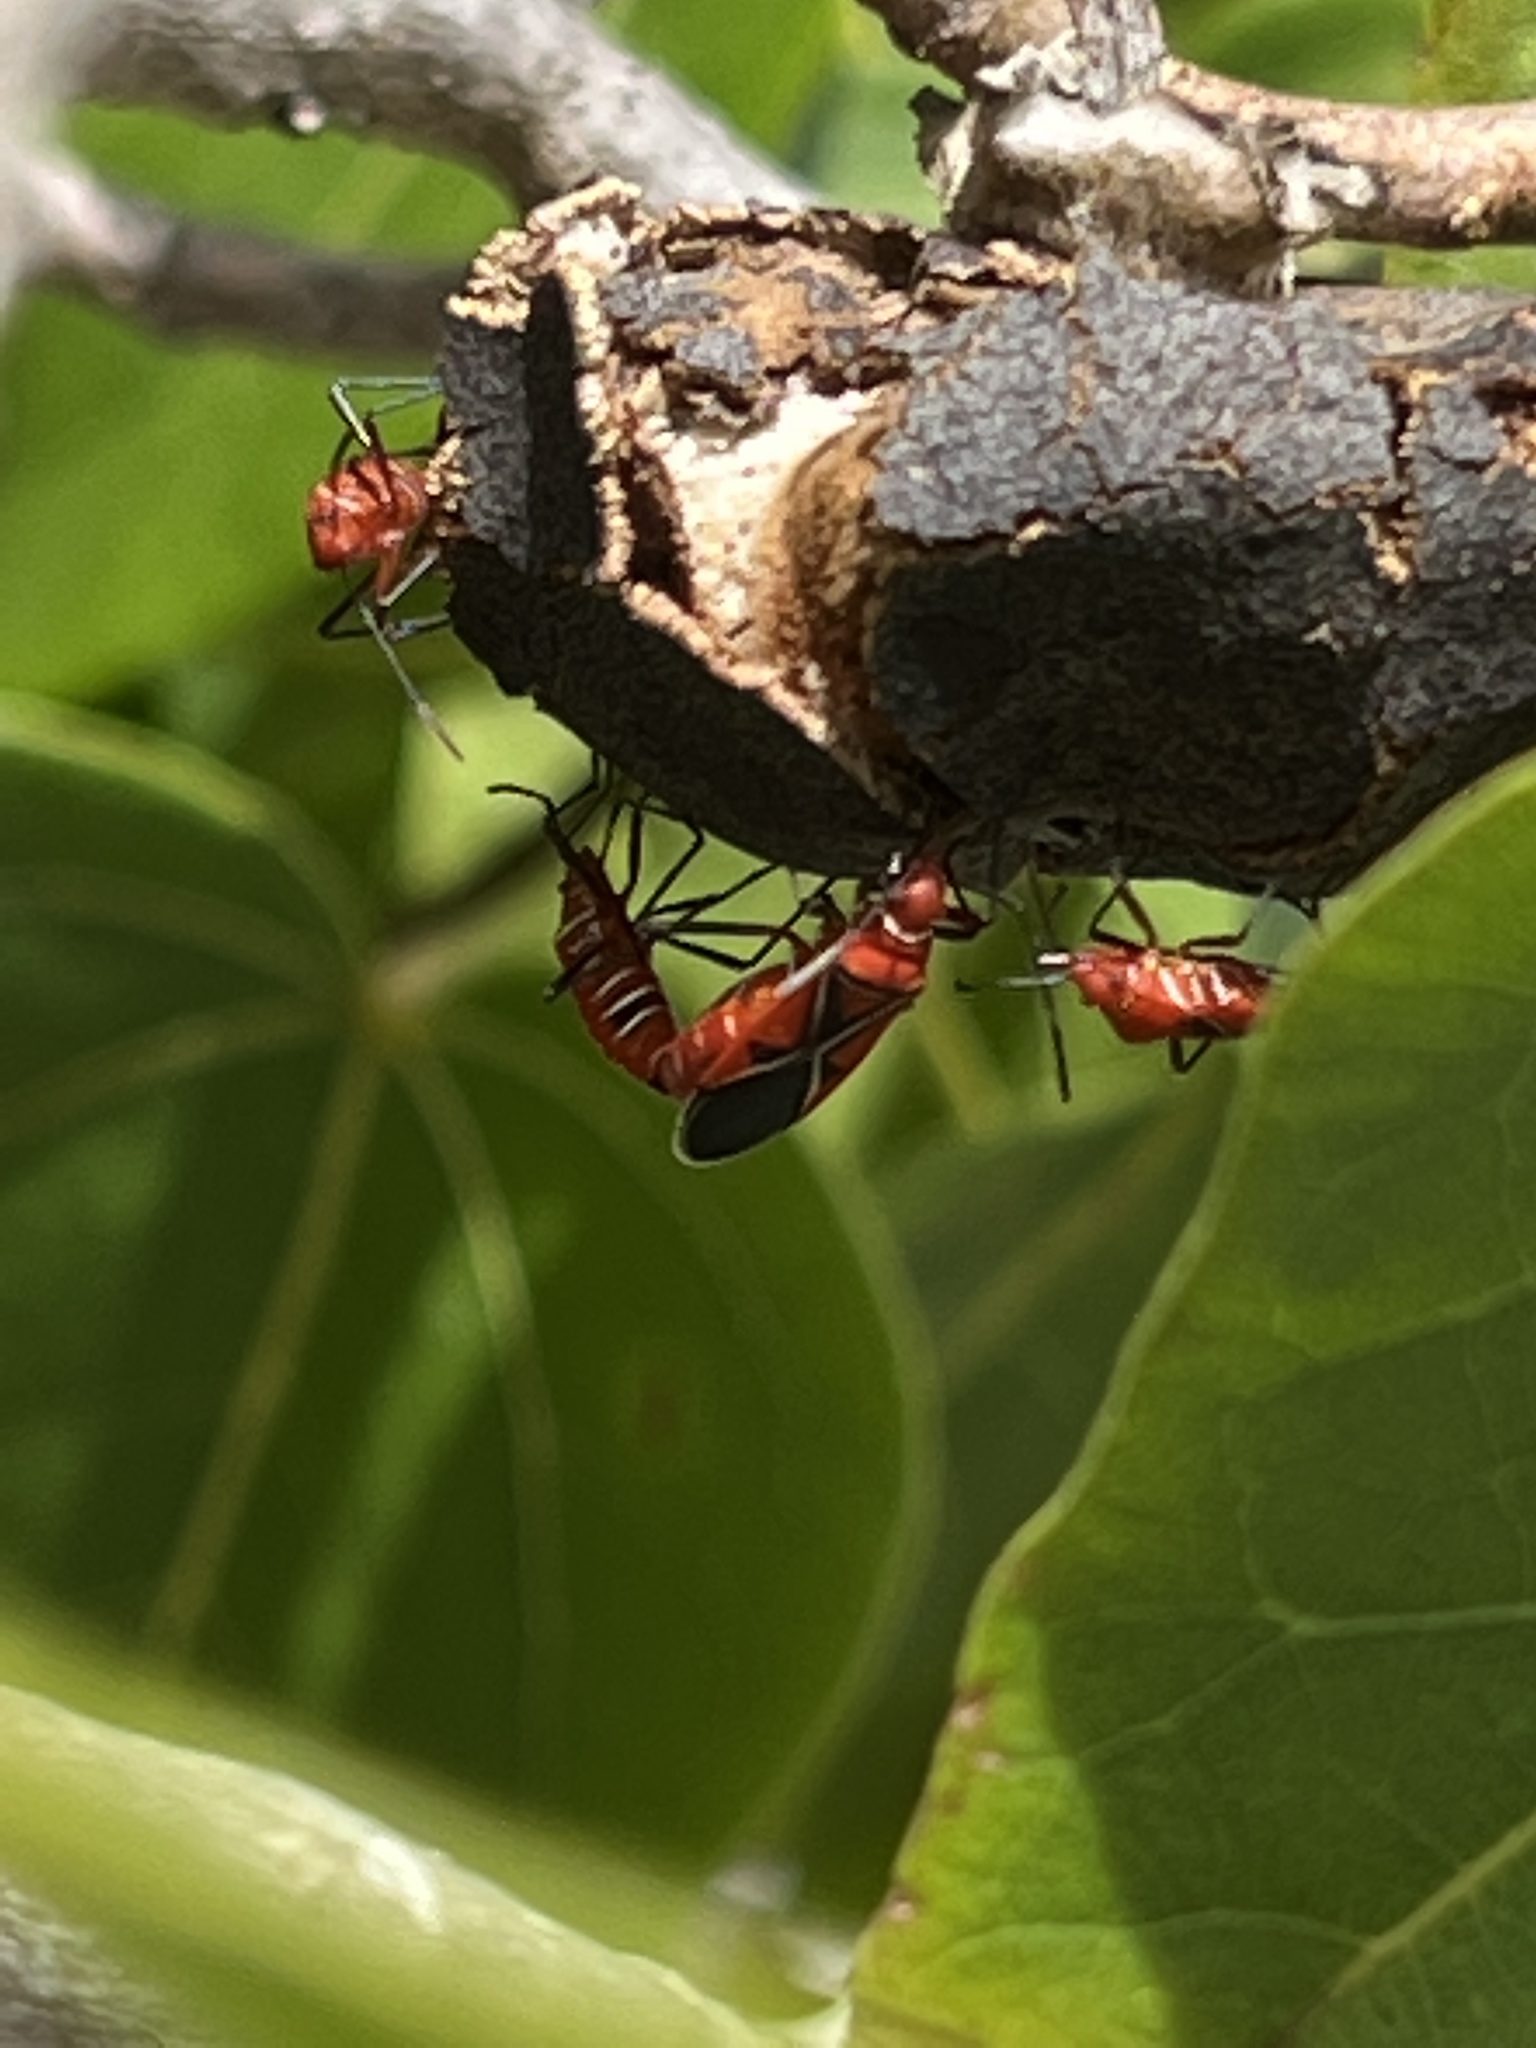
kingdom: Animalia
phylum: Arthropoda
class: Insecta
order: Hemiptera
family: Pyrrhocoridae
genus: Dysdercus
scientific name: Dysdercus andreae
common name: St. andrew's cotton stainer
